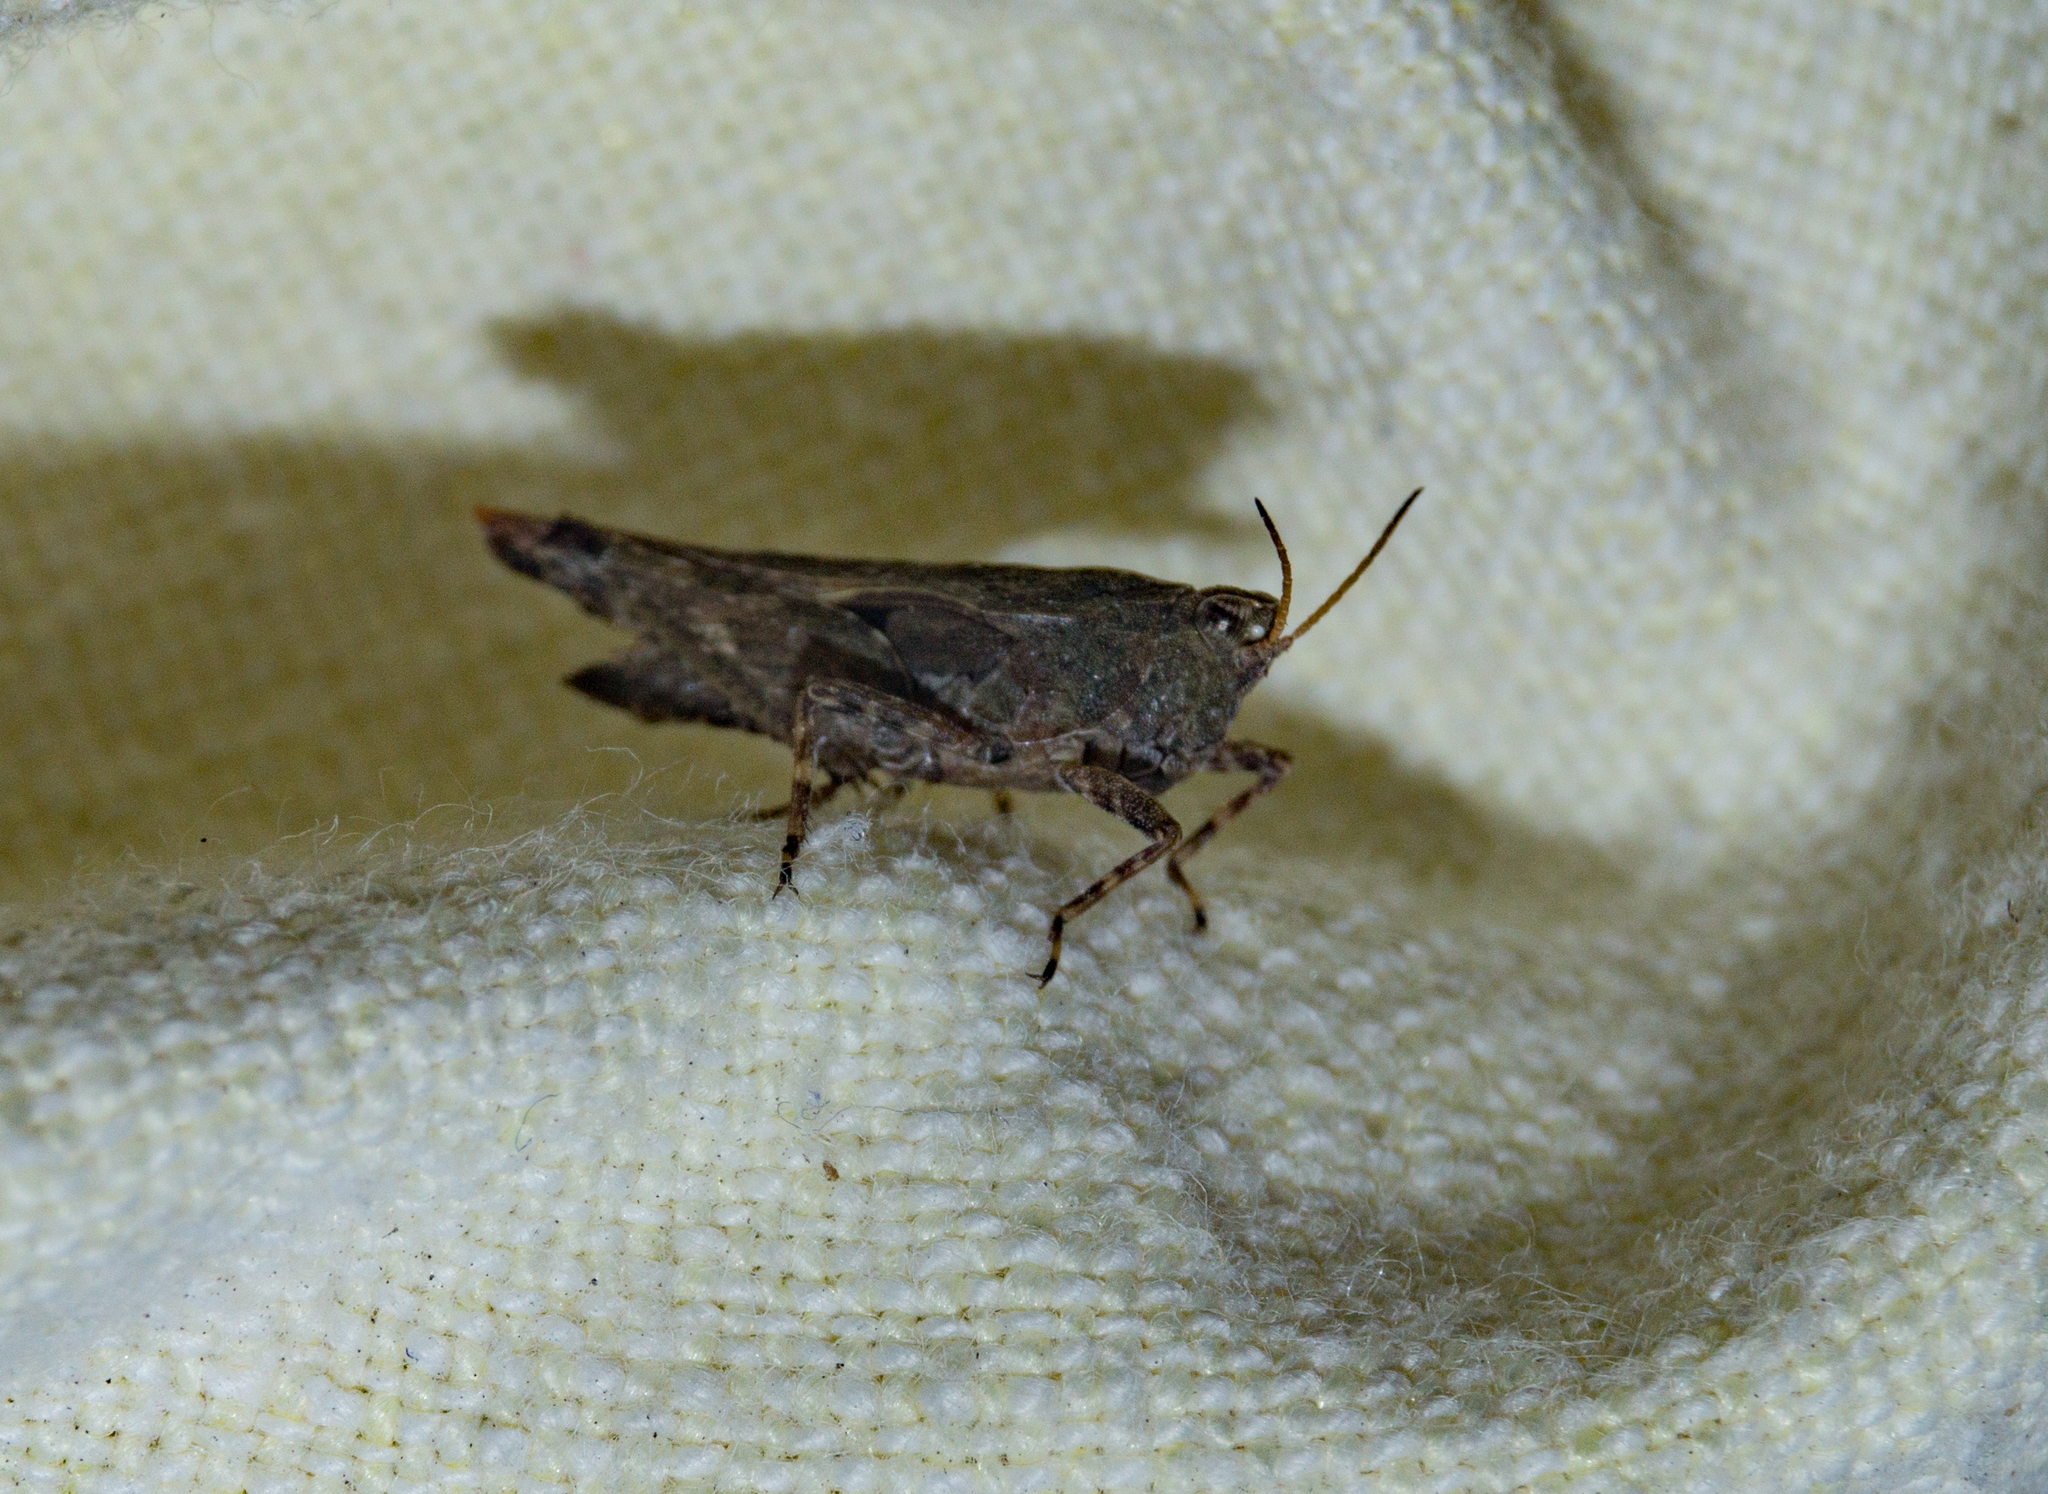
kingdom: Animalia
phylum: Arthropoda
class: Insecta
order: Orthoptera
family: Tetrigidae
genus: Tetrix
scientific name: Tetrix subulata
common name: Slender ground-hopper
